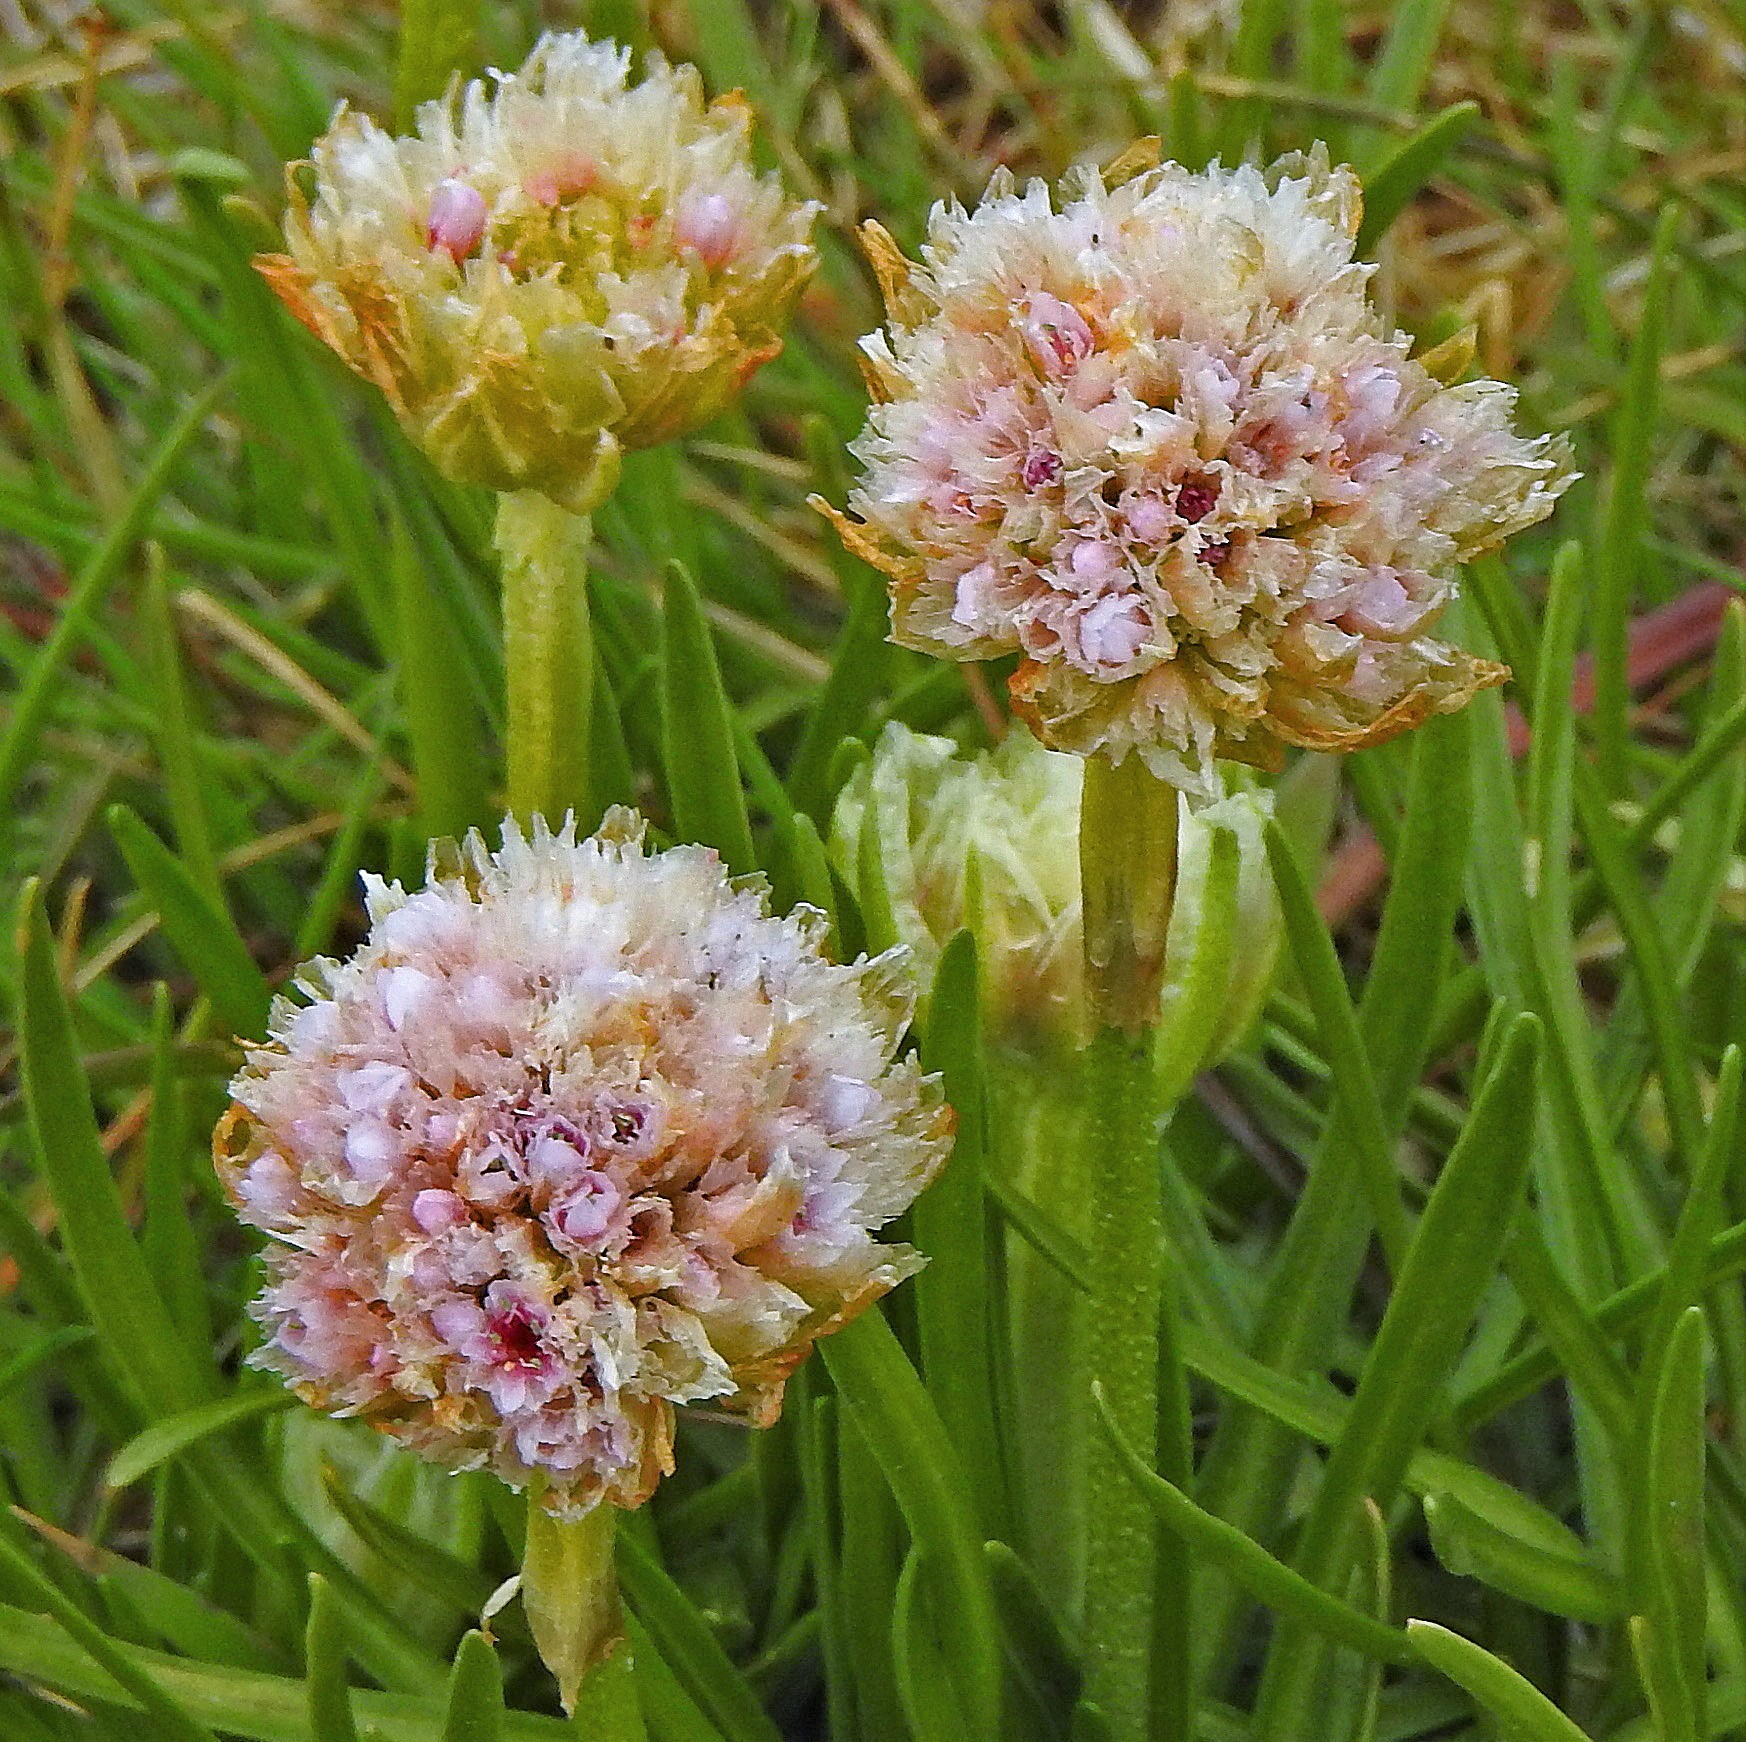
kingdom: Plantae
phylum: Tracheophyta
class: Magnoliopsida
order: Caryophyllales
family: Plumbaginaceae
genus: Armeria
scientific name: Armeria curvifolia
